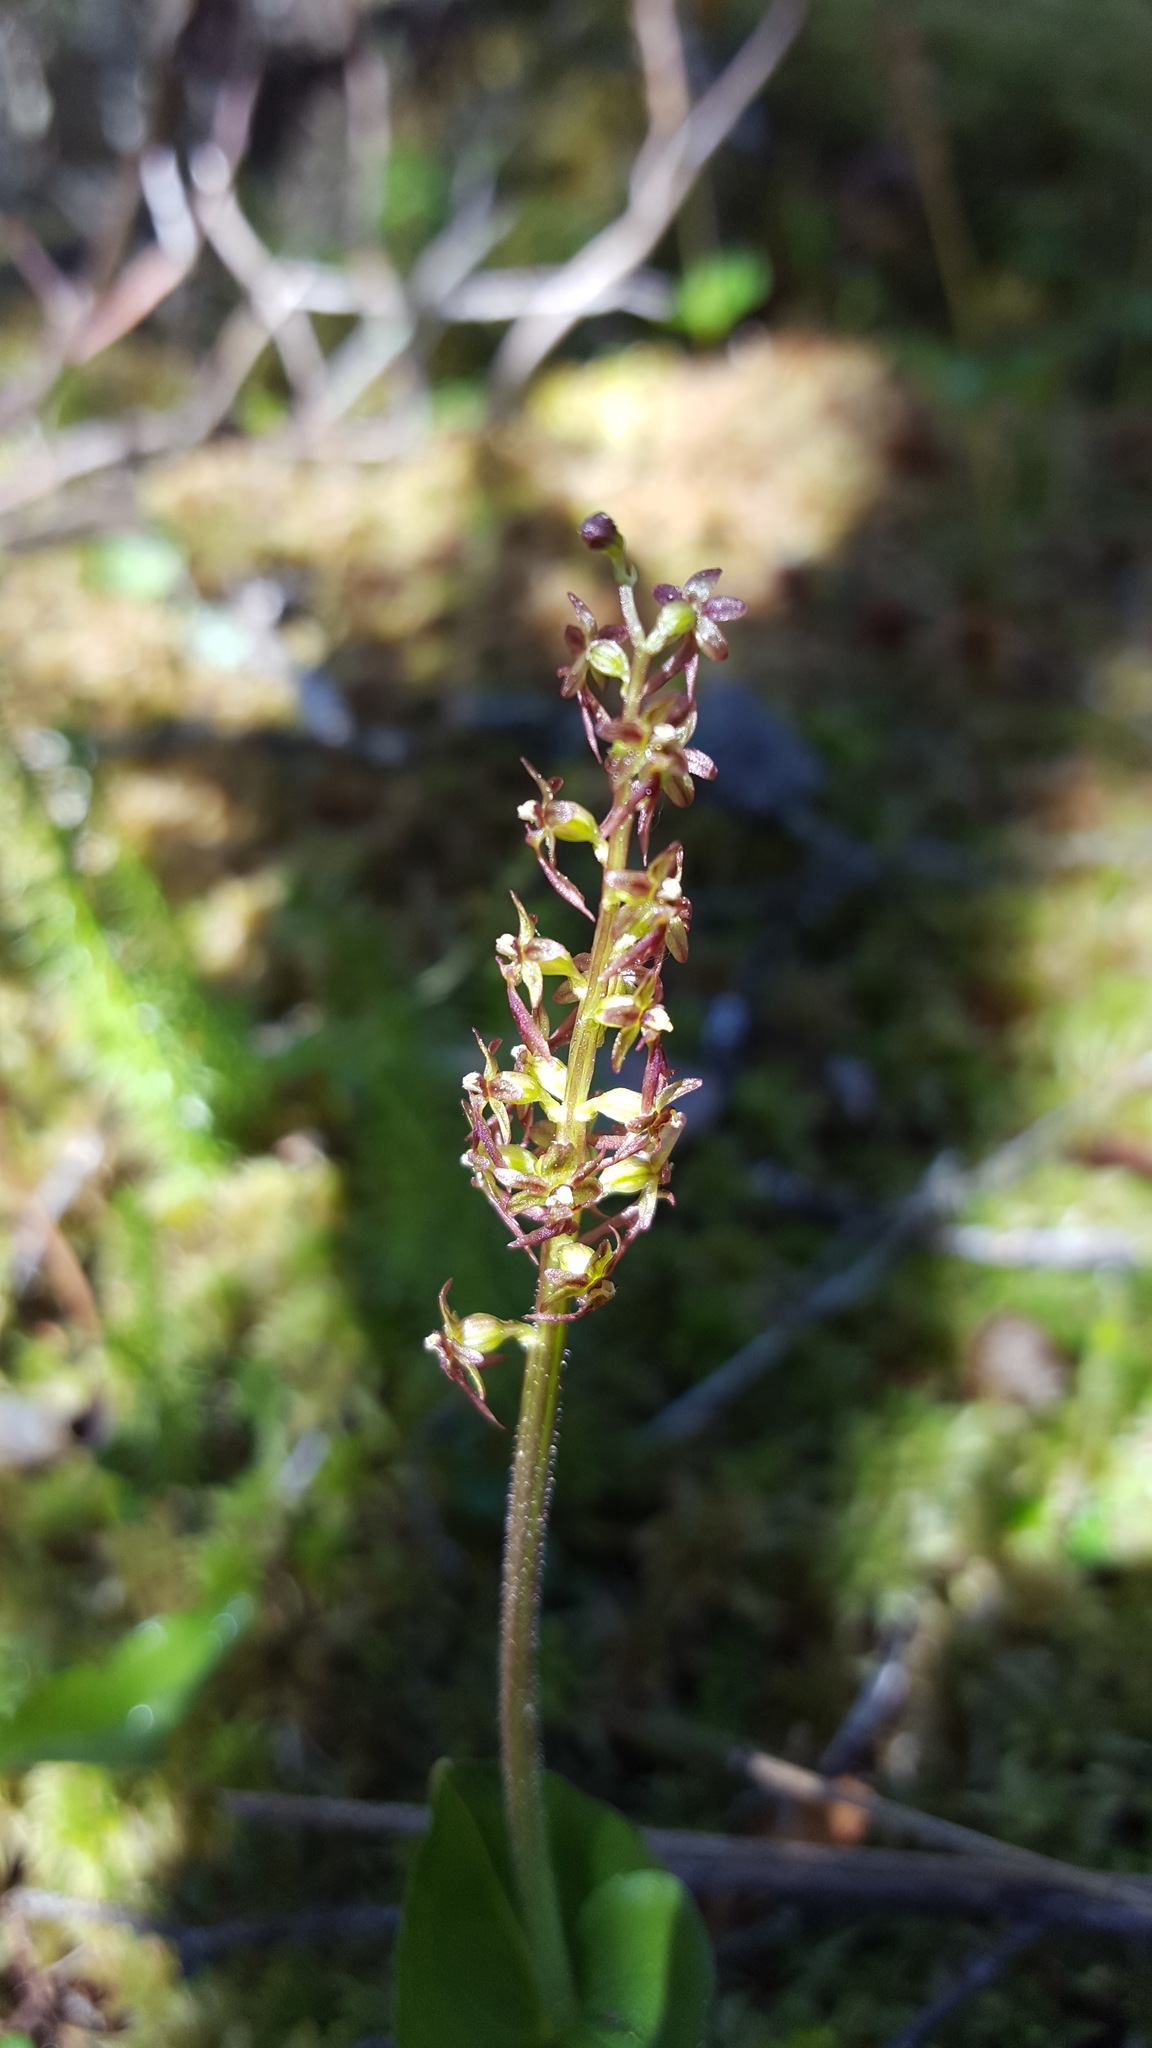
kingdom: Plantae
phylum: Tracheophyta
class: Liliopsida
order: Asparagales
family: Orchidaceae
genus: Neottia
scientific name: Neottia cordata
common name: Lesser twayblade
